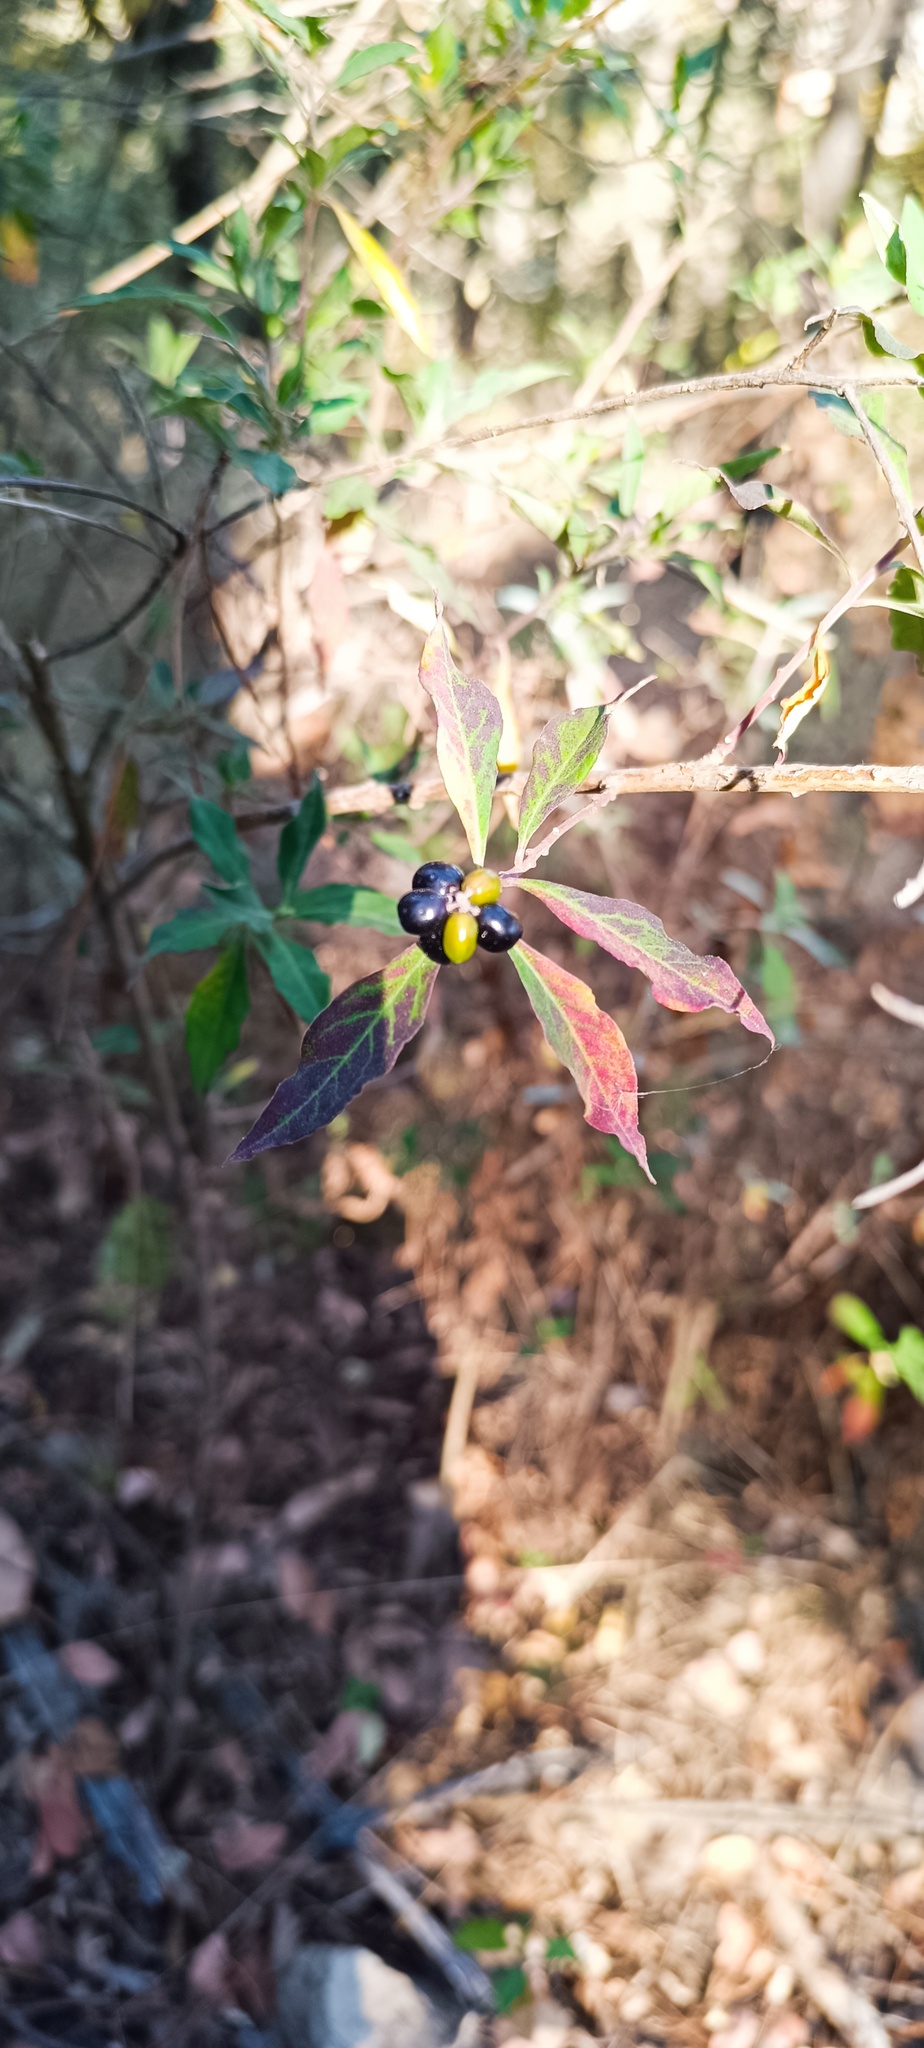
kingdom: Plantae
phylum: Tracheophyta
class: Magnoliopsida
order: Fabales
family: Polygalaceae
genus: Monnina
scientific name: Monnina ciliolata
